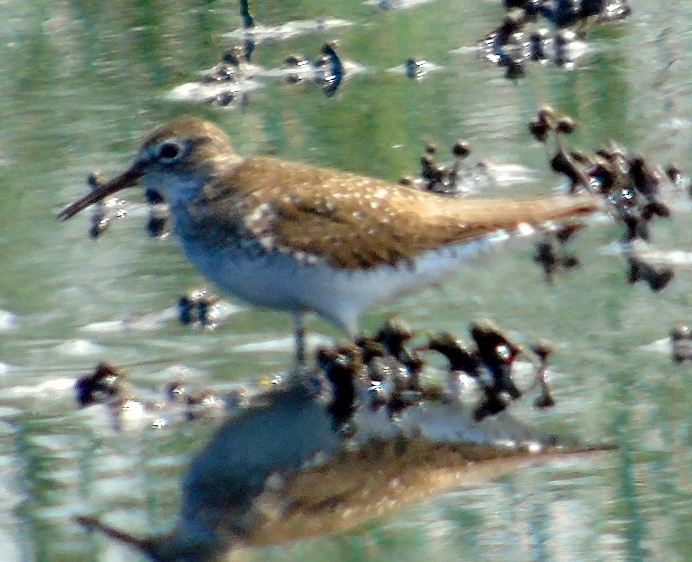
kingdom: Animalia
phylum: Chordata
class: Aves
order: Charadriiformes
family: Scolopacidae
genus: Tringa
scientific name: Tringa solitaria
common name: Solitary sandpiper
